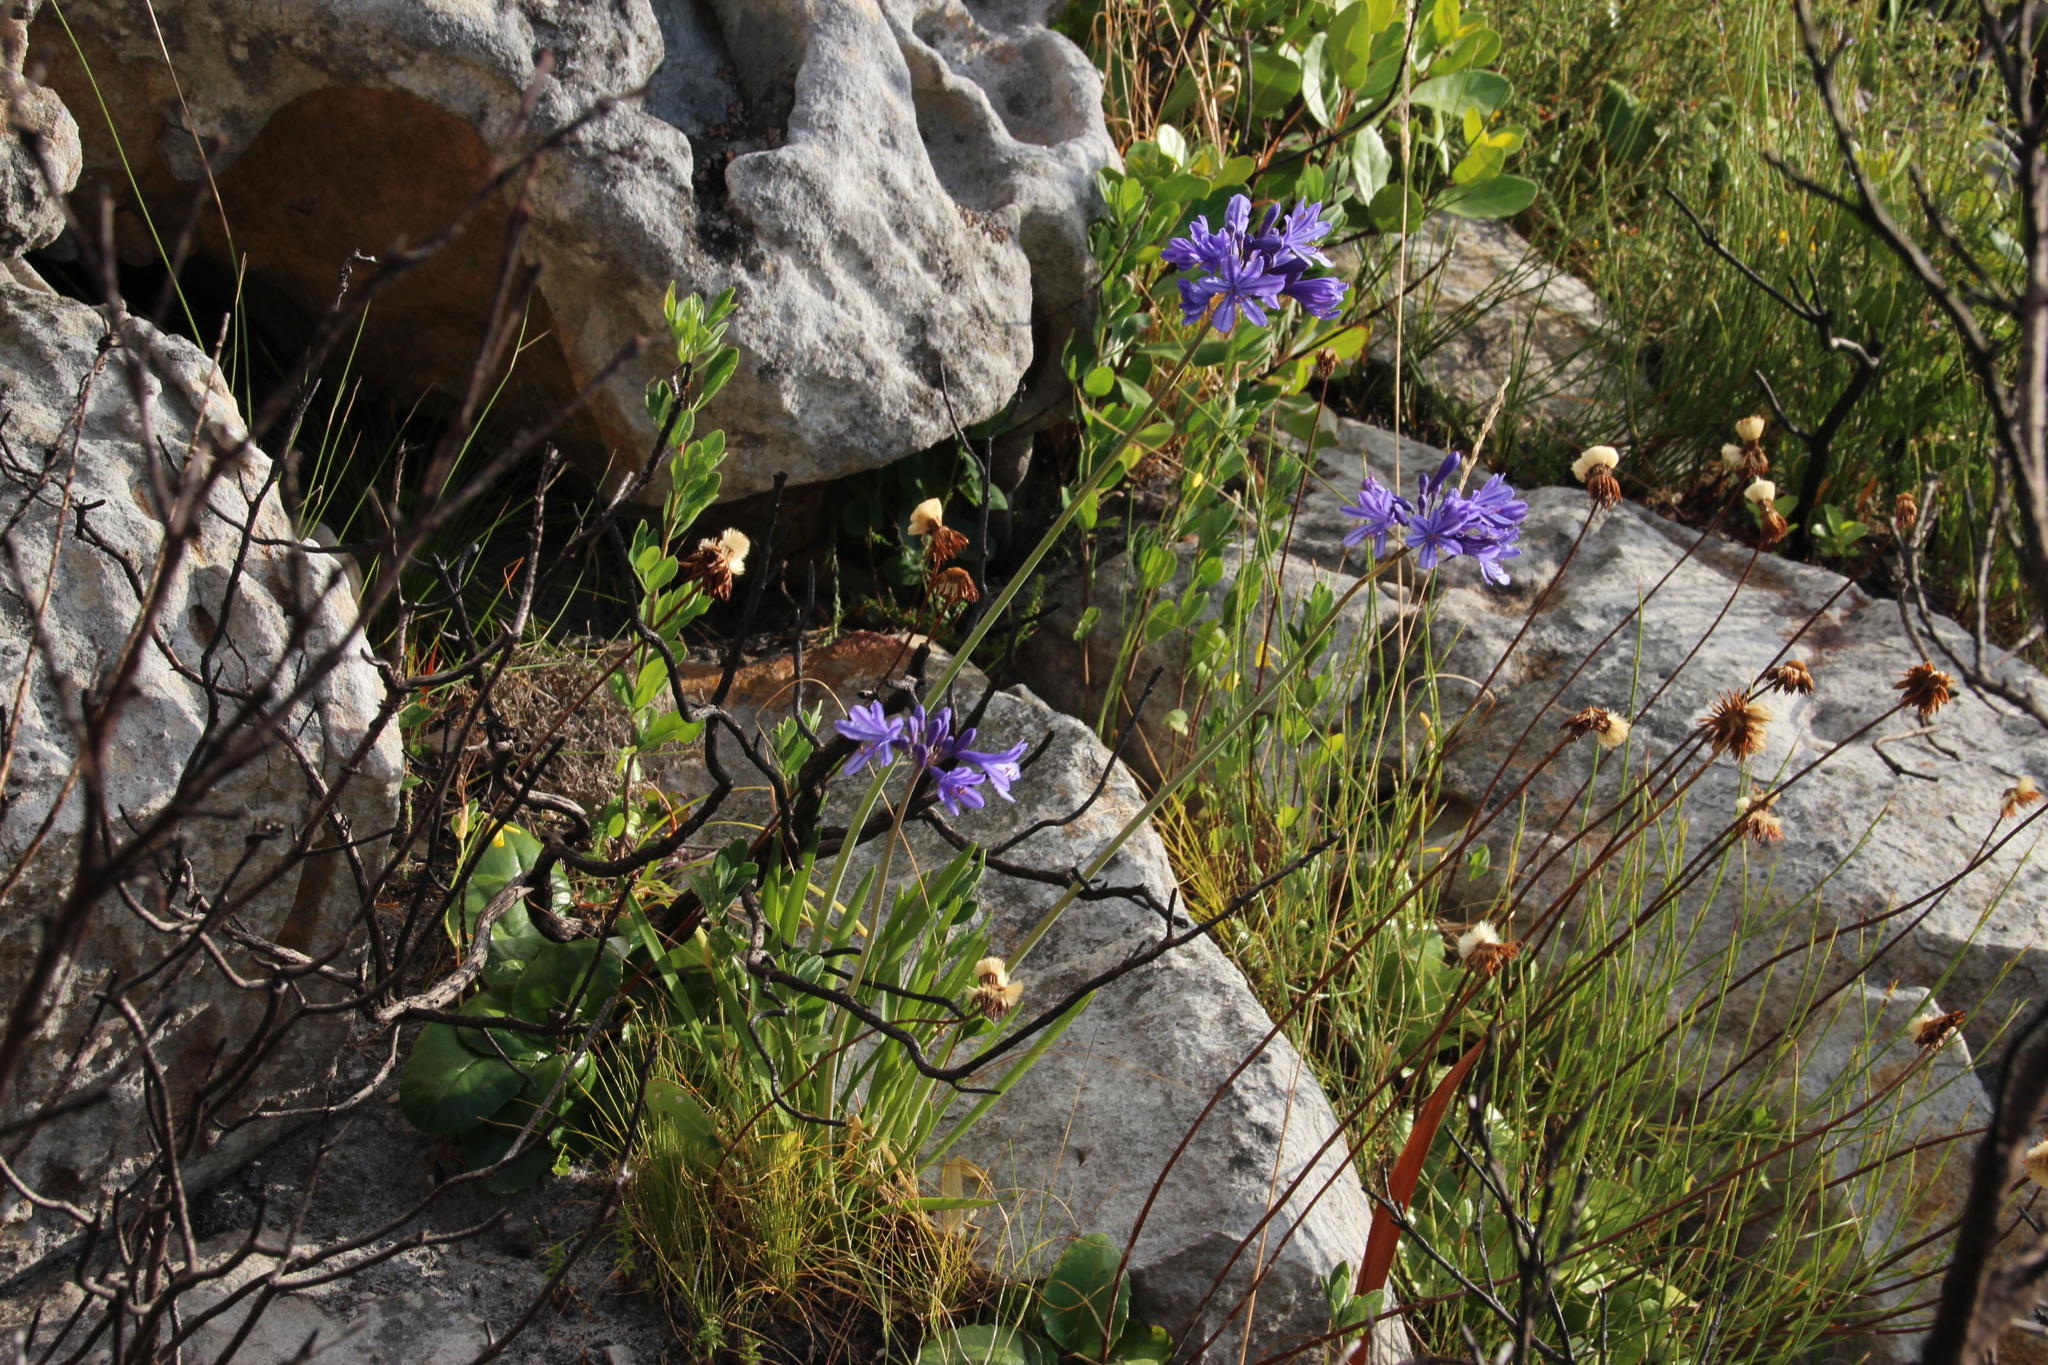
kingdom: Plantae
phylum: Tracheophyta
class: Liliopsida
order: Asparagales
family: Amaryllidaceae
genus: Agapanthus
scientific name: Agapanthus africanus
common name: Lily-of-the-nile
